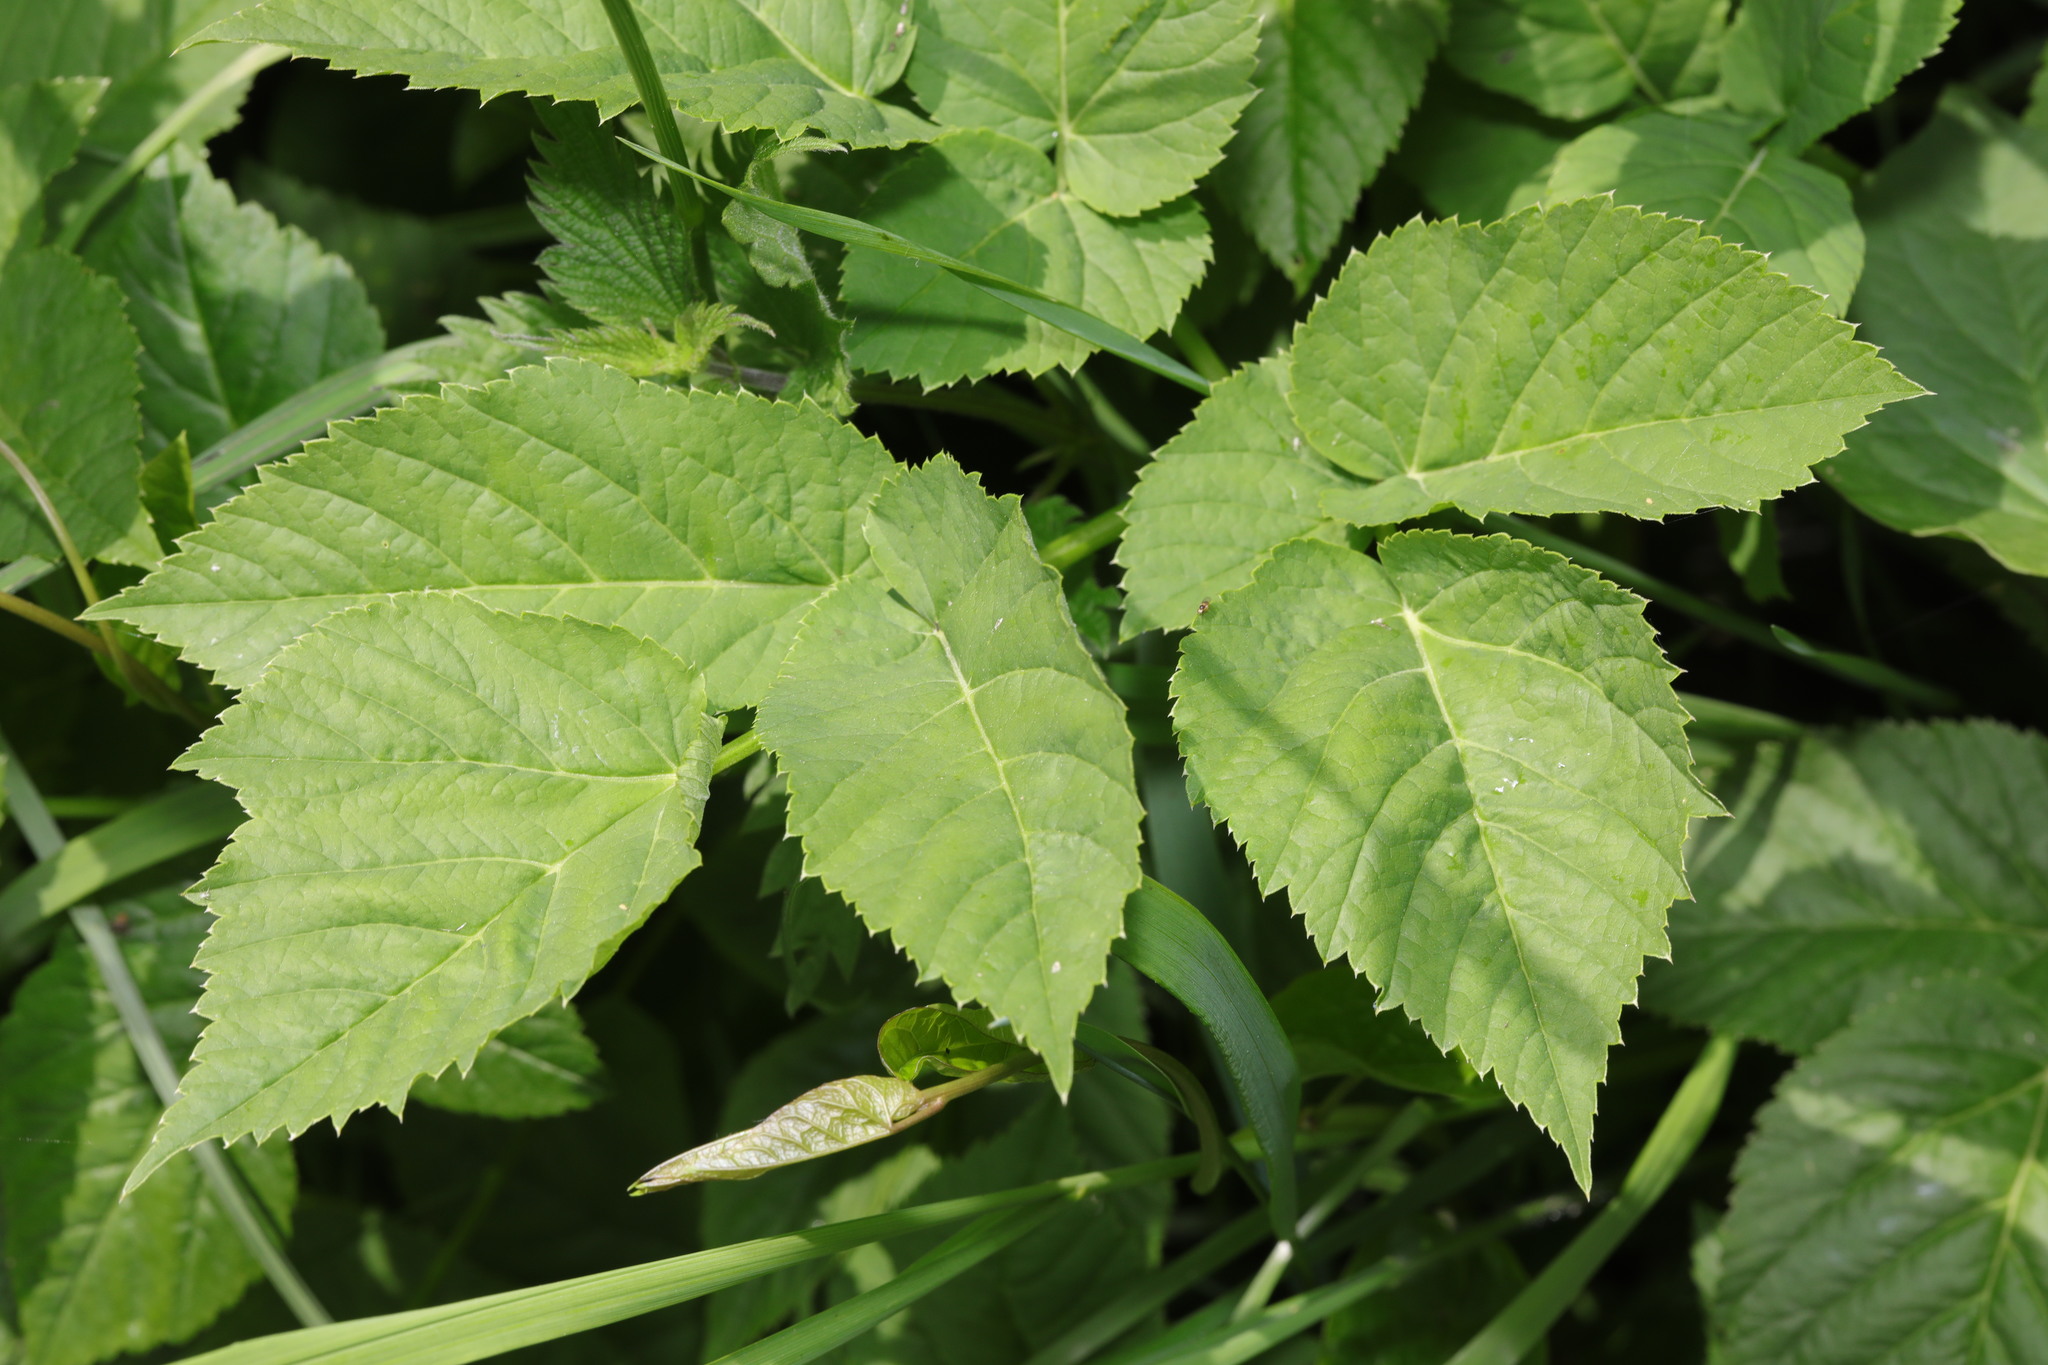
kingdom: Plantae
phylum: Tracheophyta
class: Magnoliopsida
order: Apiales
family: Apiaceae
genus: Aegopodium
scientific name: Aegopodium podagraria
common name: Ground-elder
